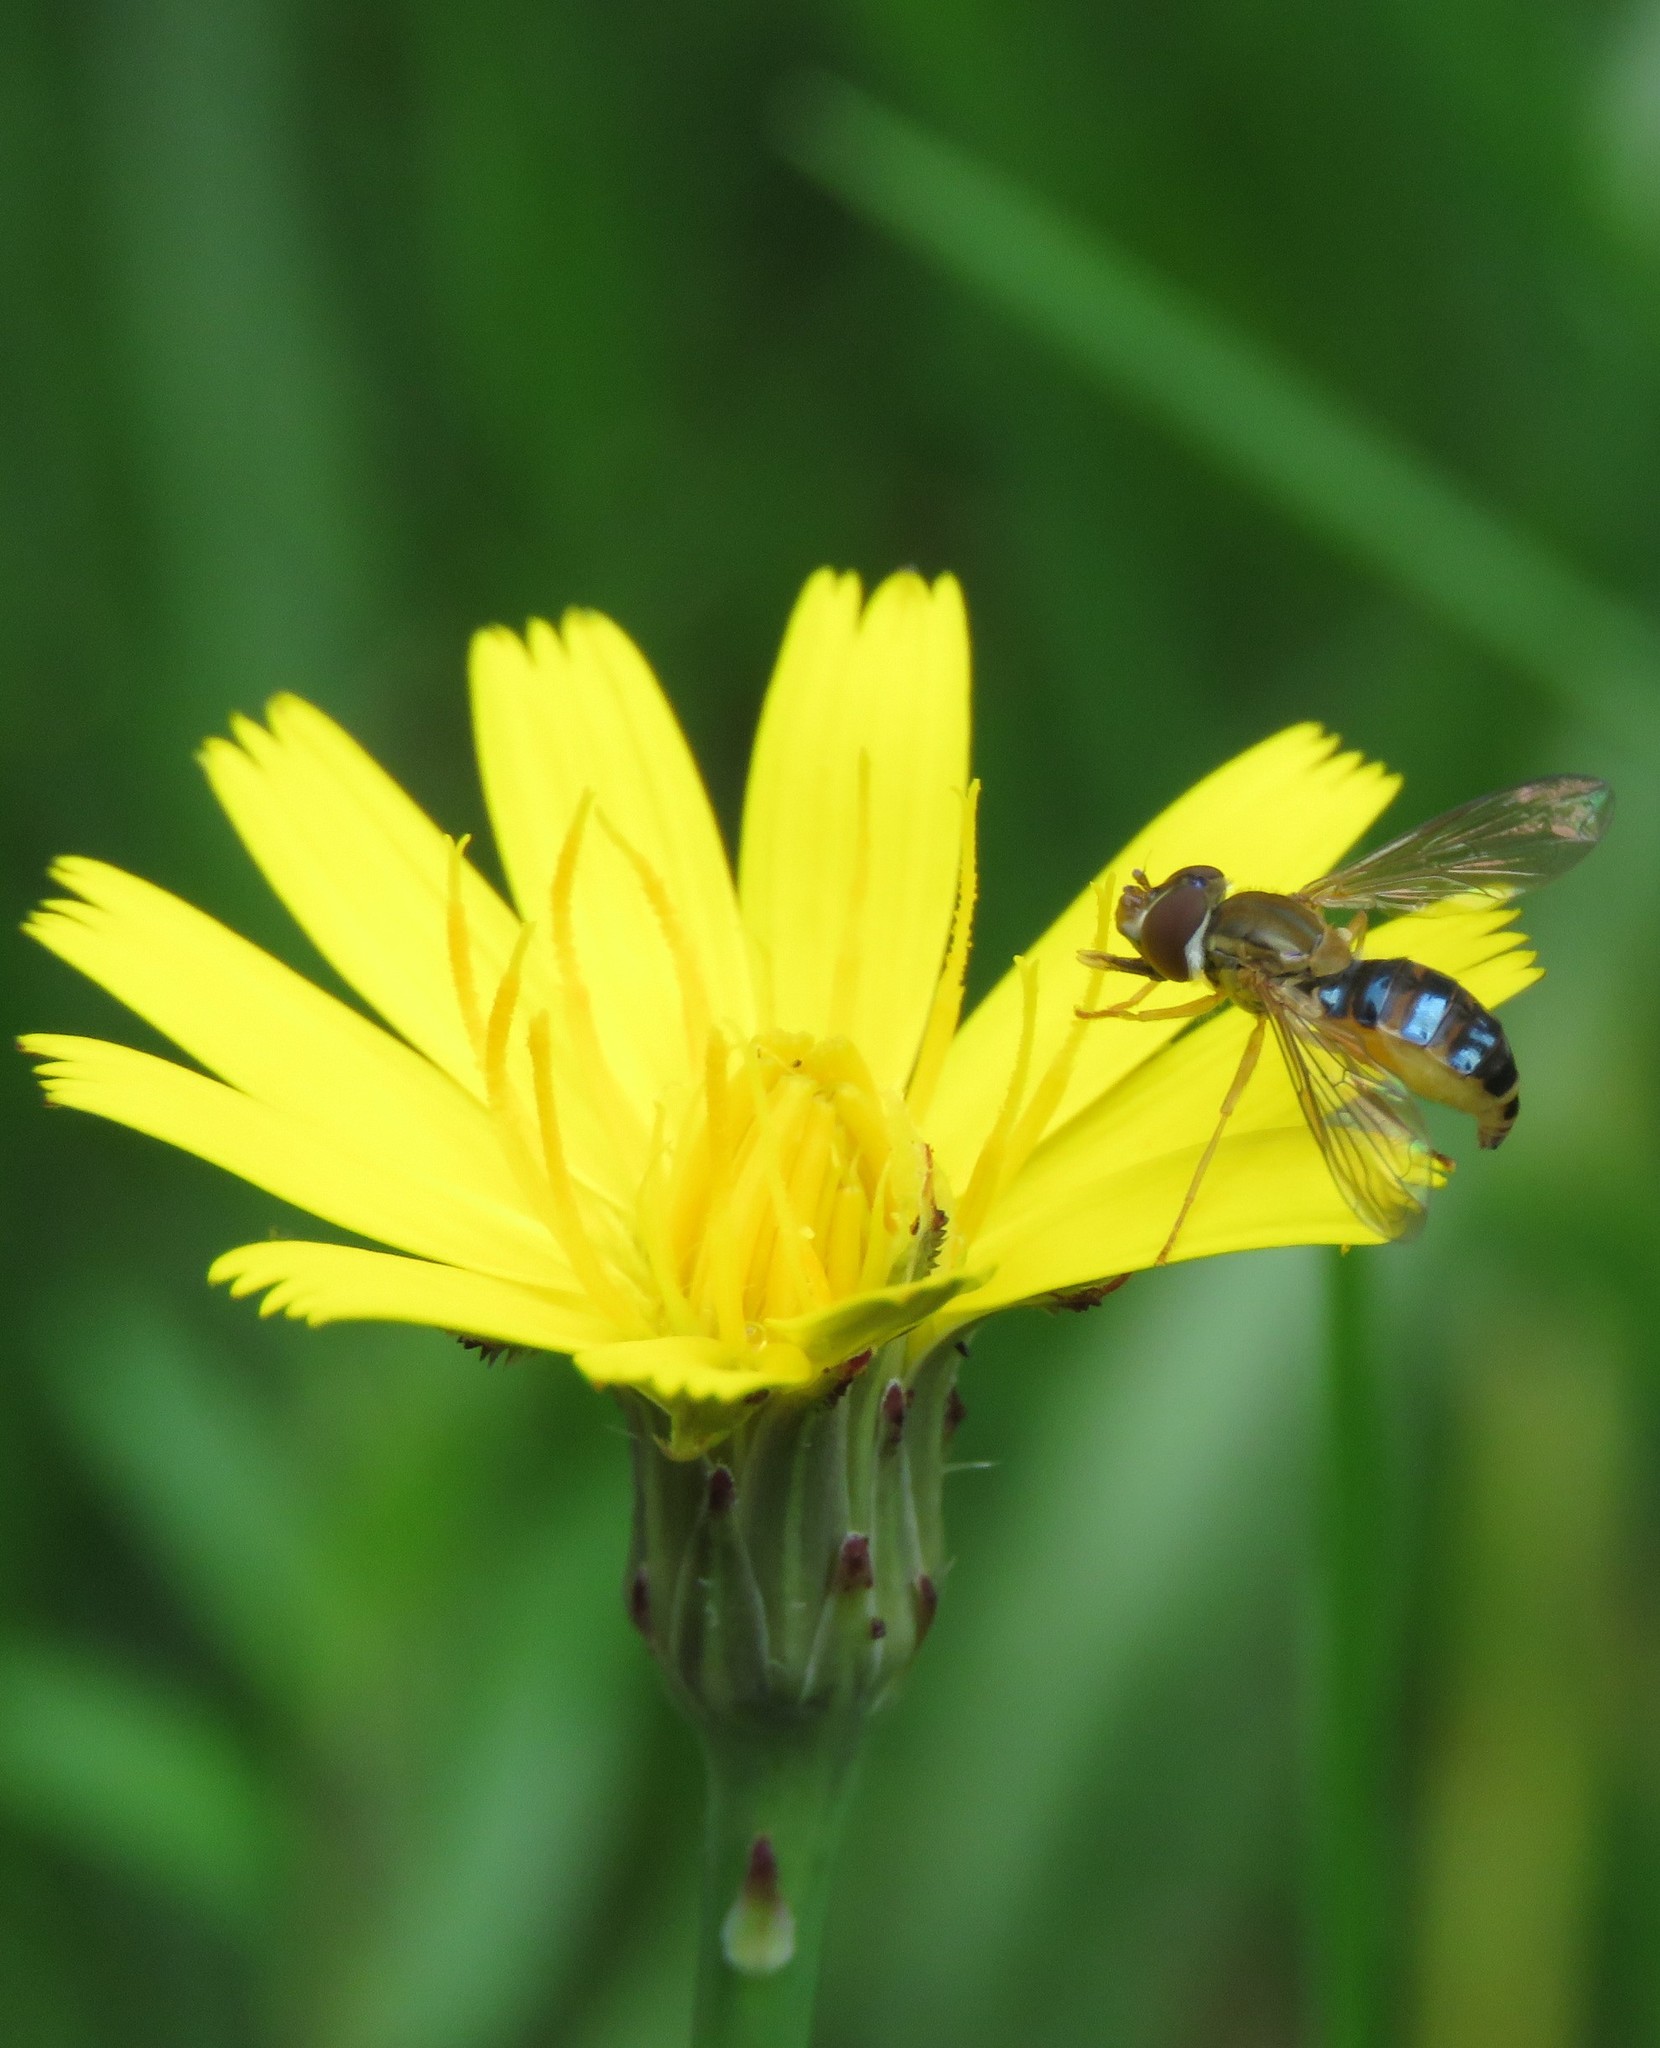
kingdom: Plantae
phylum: Tracheophyta
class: Magnoliopsida
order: Asterales
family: Asteraceae
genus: Hypochaeris
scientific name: Hypochaeris radicata
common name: Flatweed
